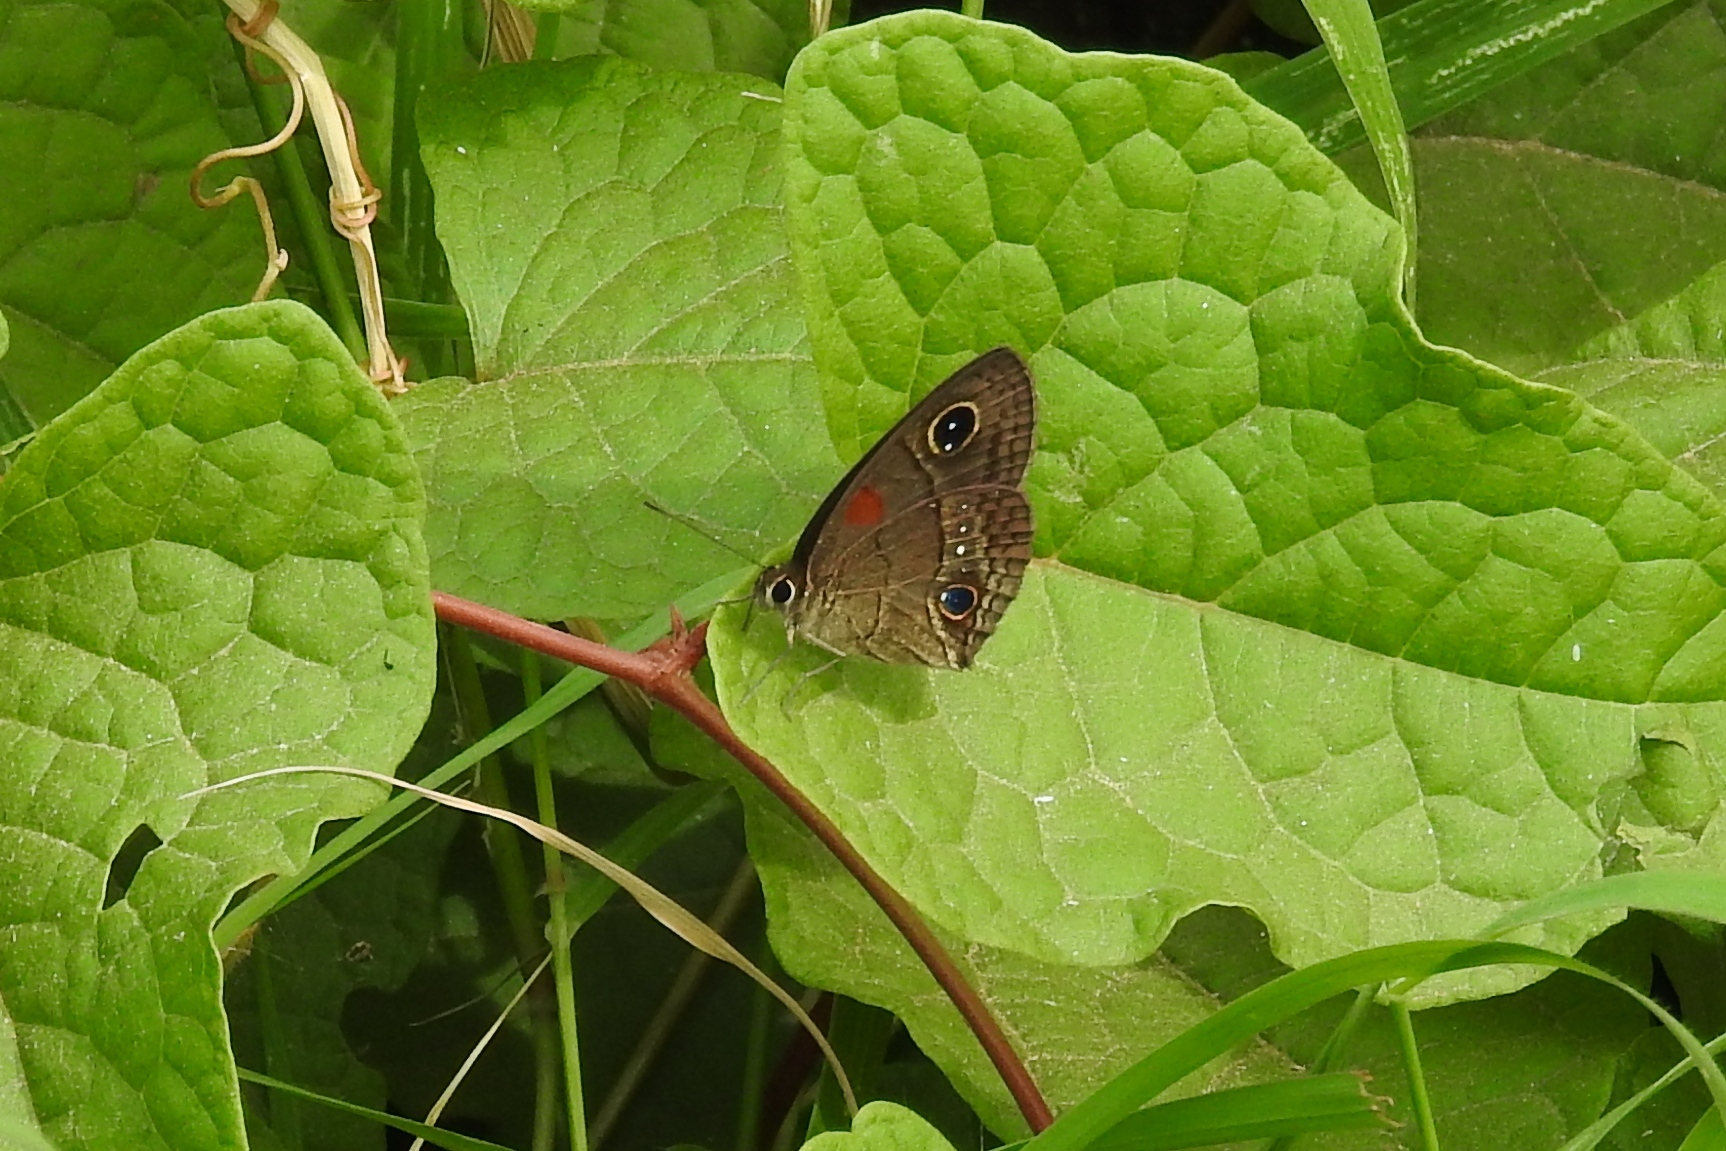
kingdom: Animalia
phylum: Arthropoda
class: Insecta
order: Lepidoptera
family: Nymphalidae
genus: Calisto
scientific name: Calisto herophile
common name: Cuban calisto
